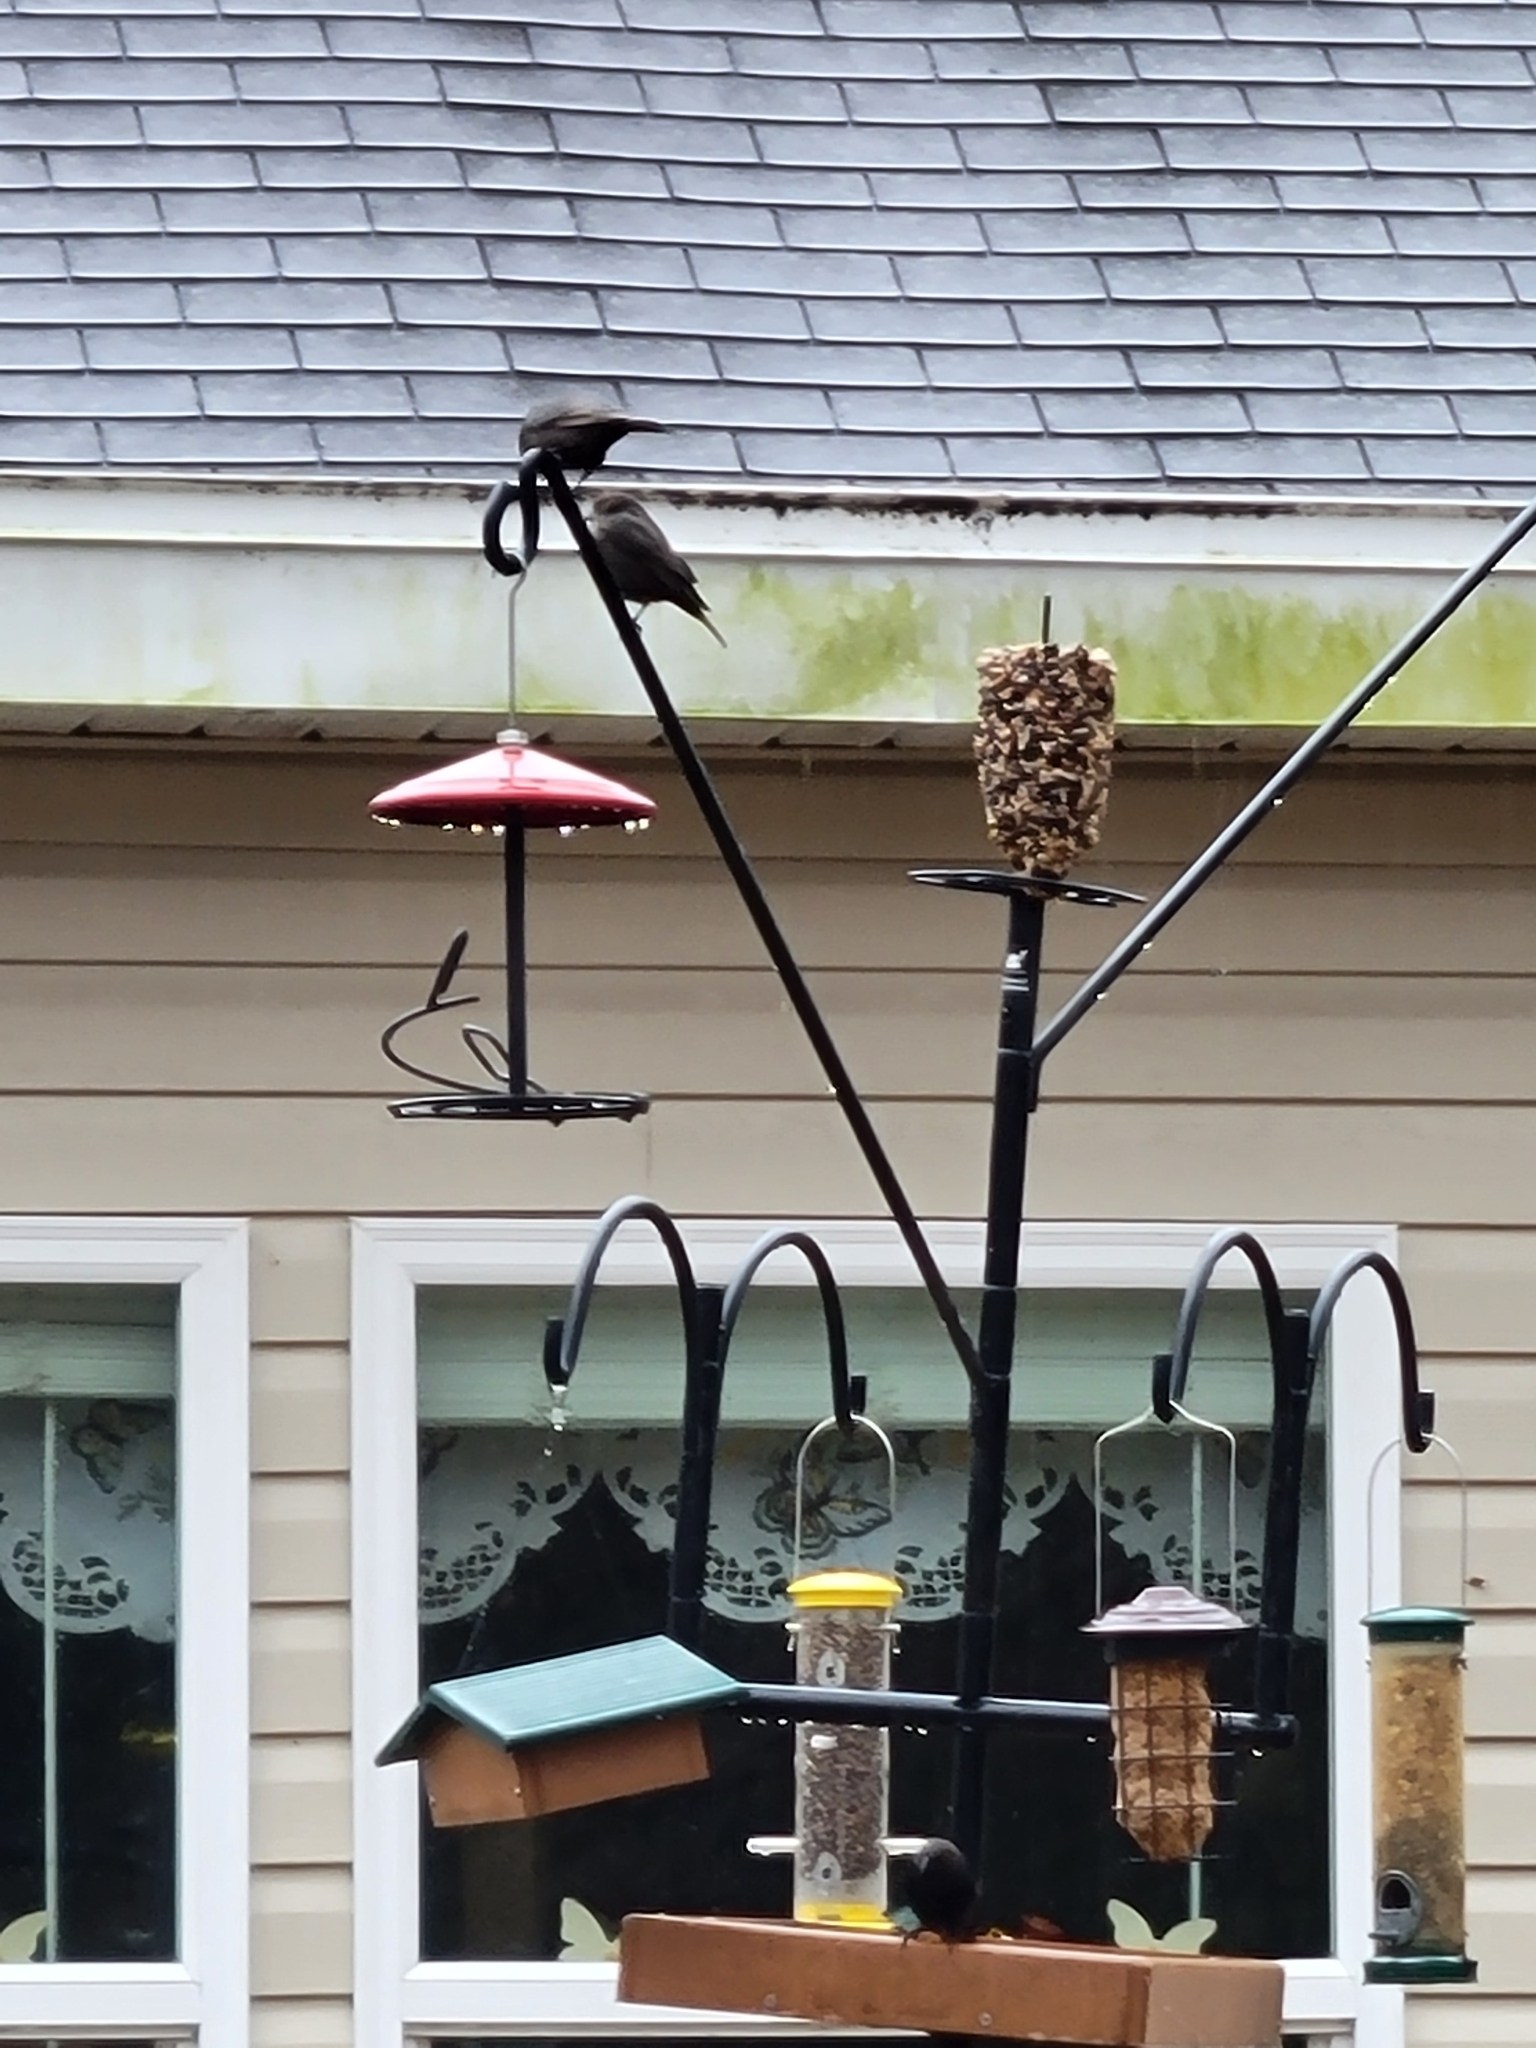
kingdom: Animalia
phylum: Chordata
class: Aves
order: Passeriformes
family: Icteridae
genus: Molothrus
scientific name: Molothrus ater
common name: Brown-headed cowbird
